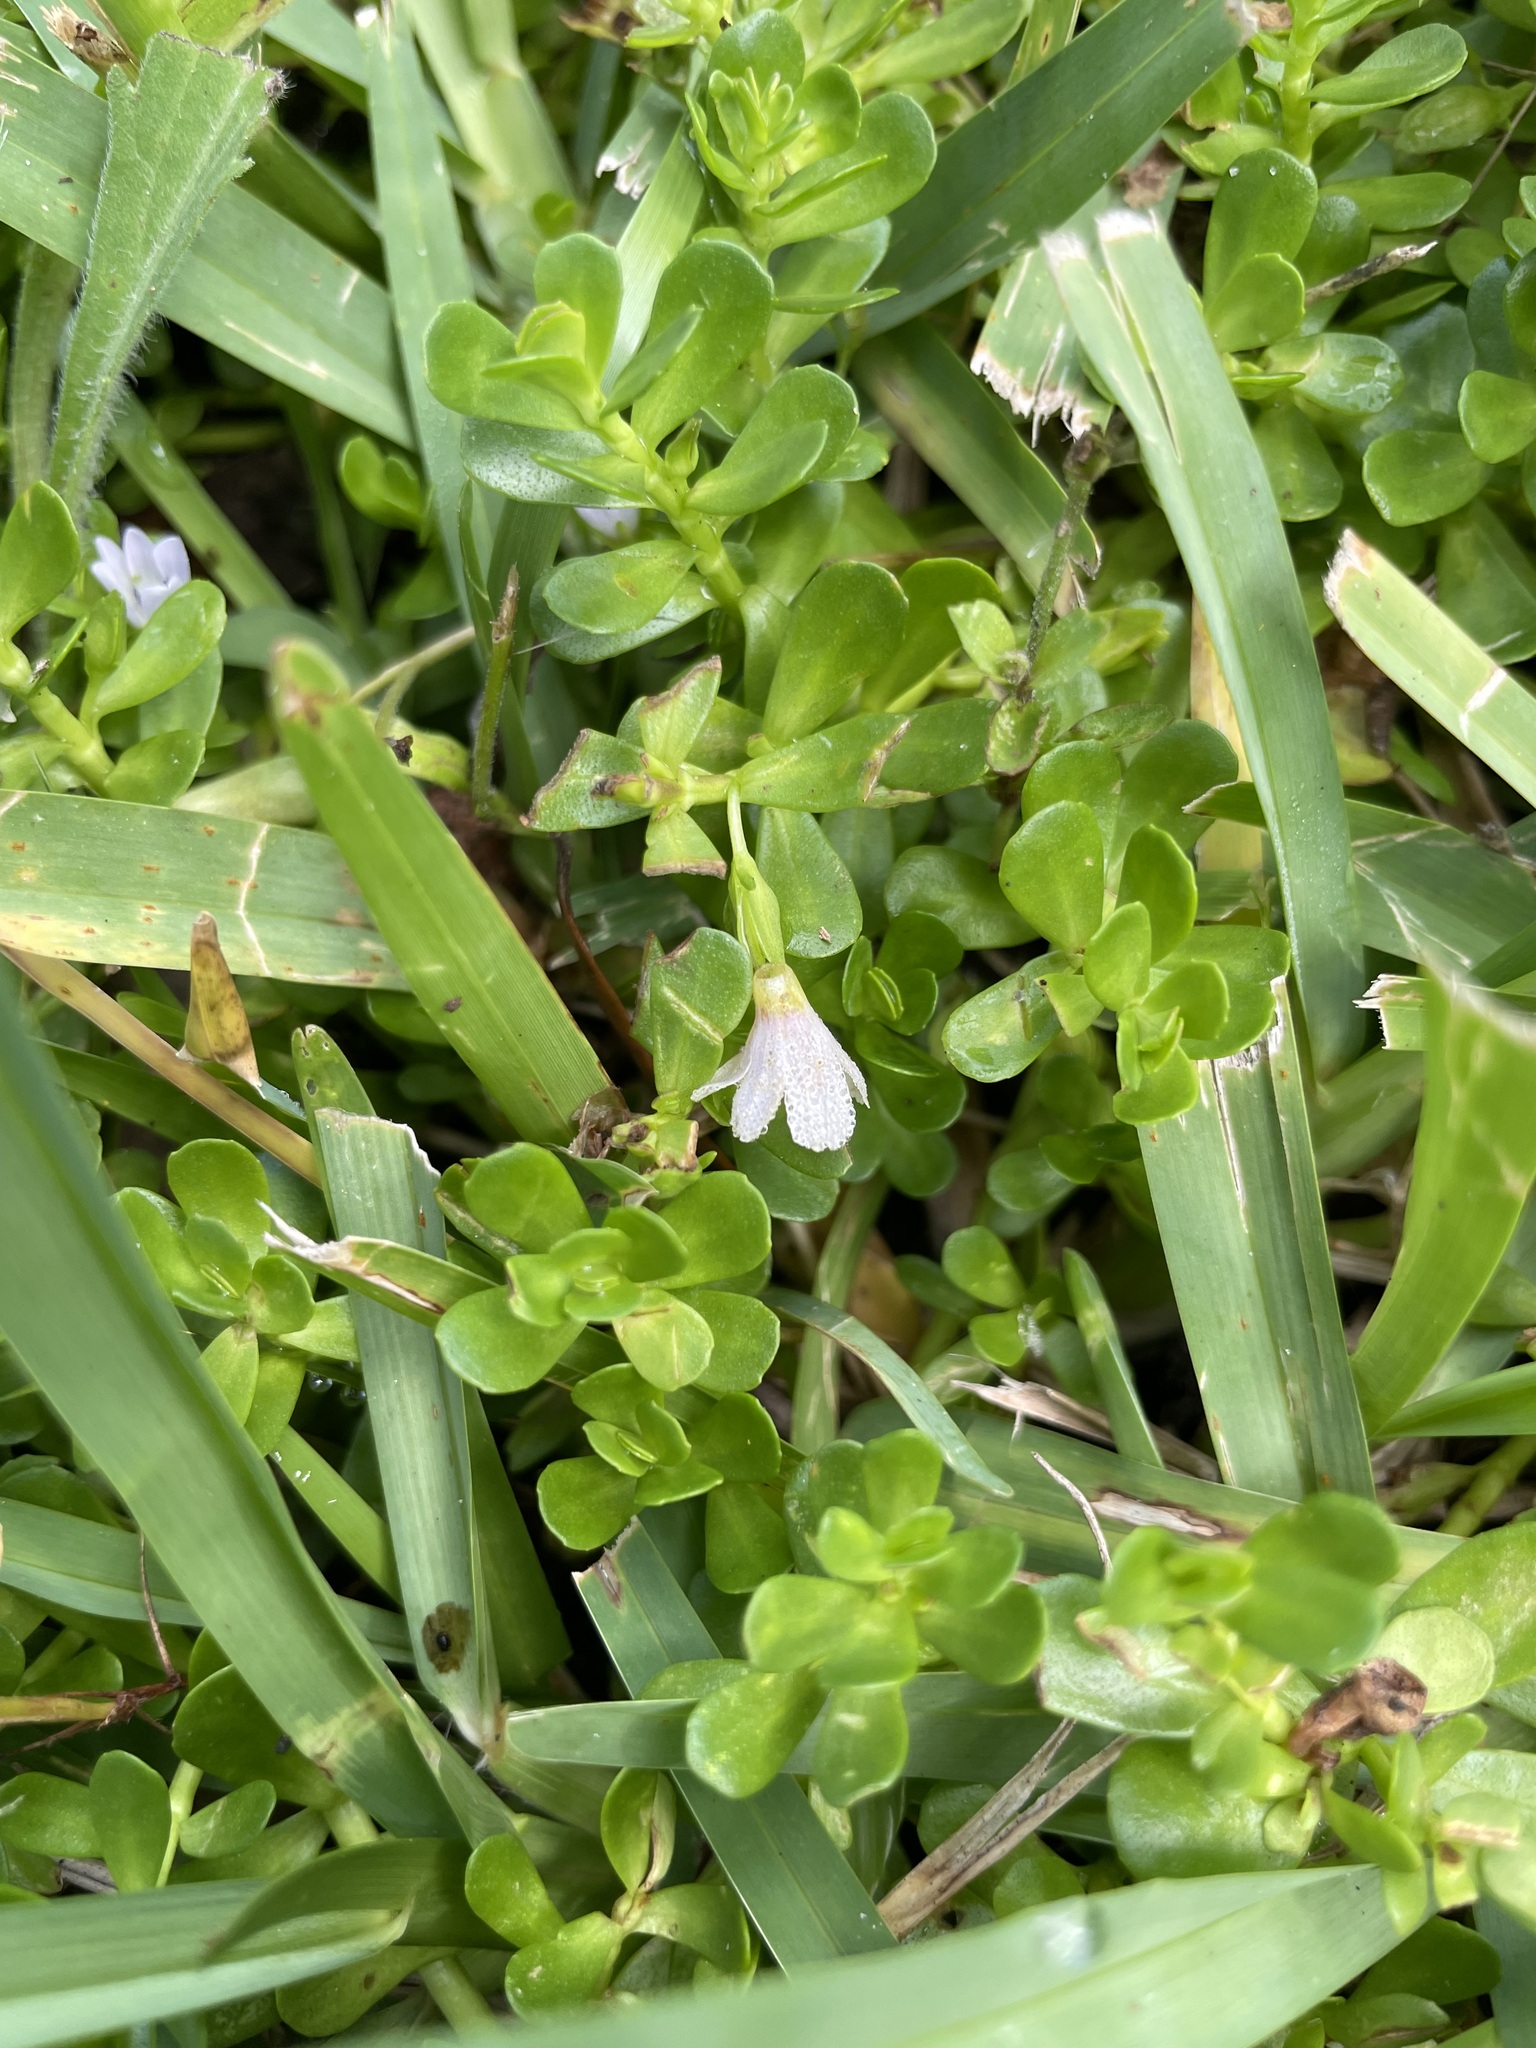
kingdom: Plantae
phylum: Tracheophyta
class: Magnoliopsida
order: Lamiales
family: Plantaginaceae
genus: Bacopa
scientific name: Bacopa monnieri
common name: Indian-pennywort
